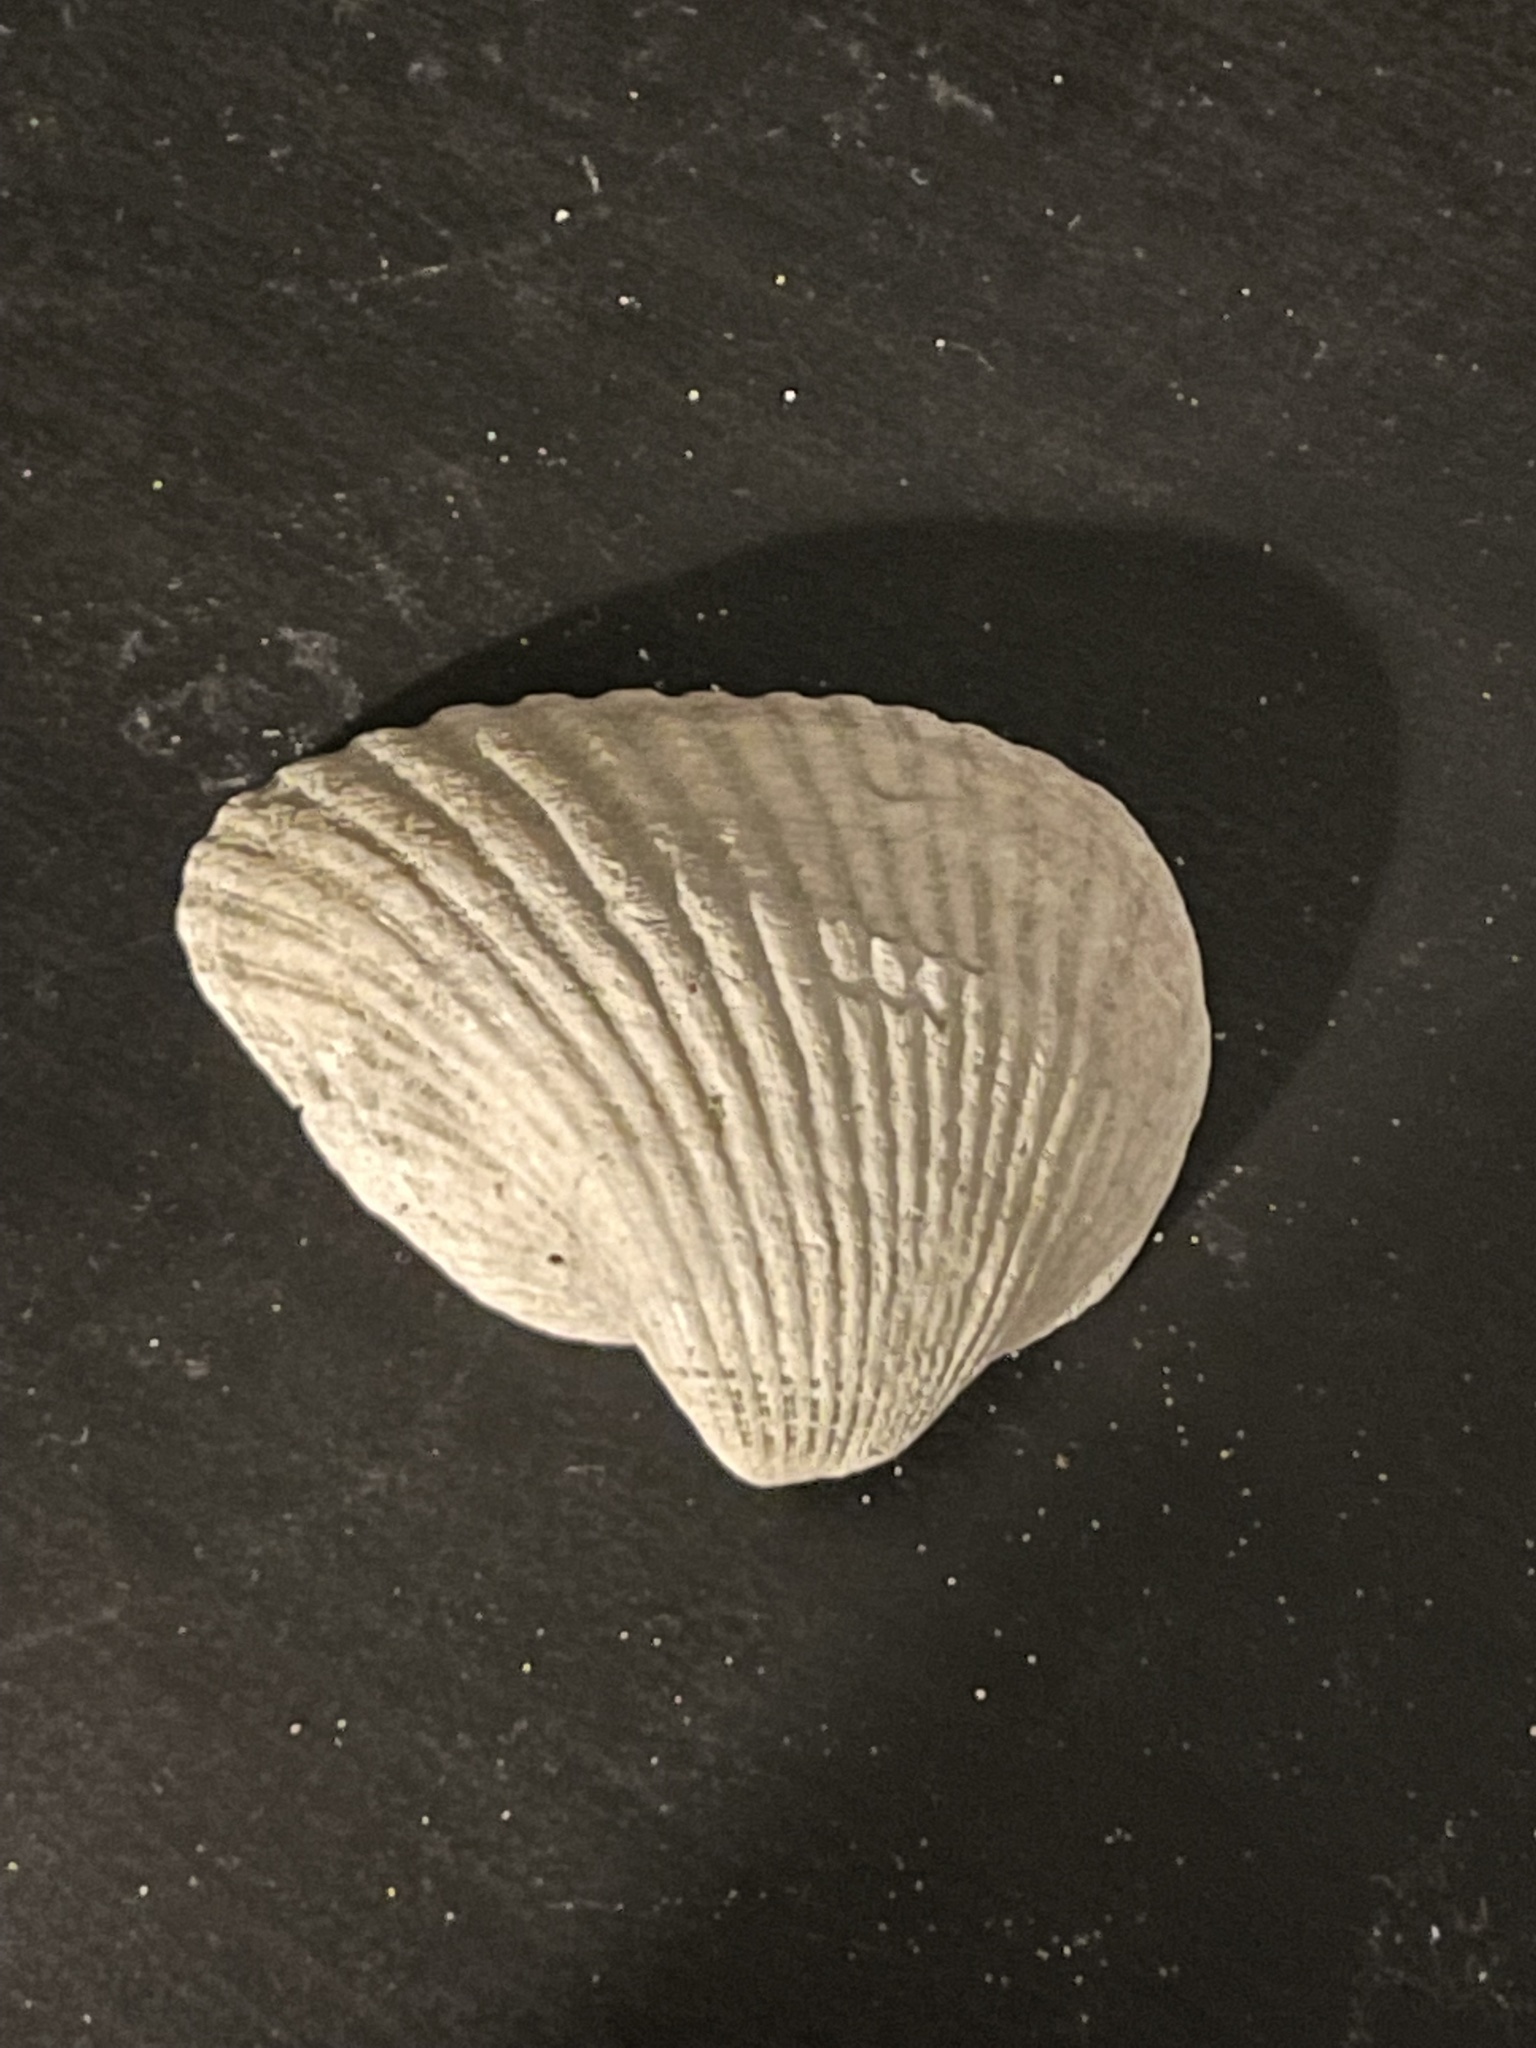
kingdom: Animalia
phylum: Mollusca
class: Bivalvia
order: Arcida
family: Noetiidae
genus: Noetia
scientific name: Noetia ponderosa
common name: Ponderous ark
